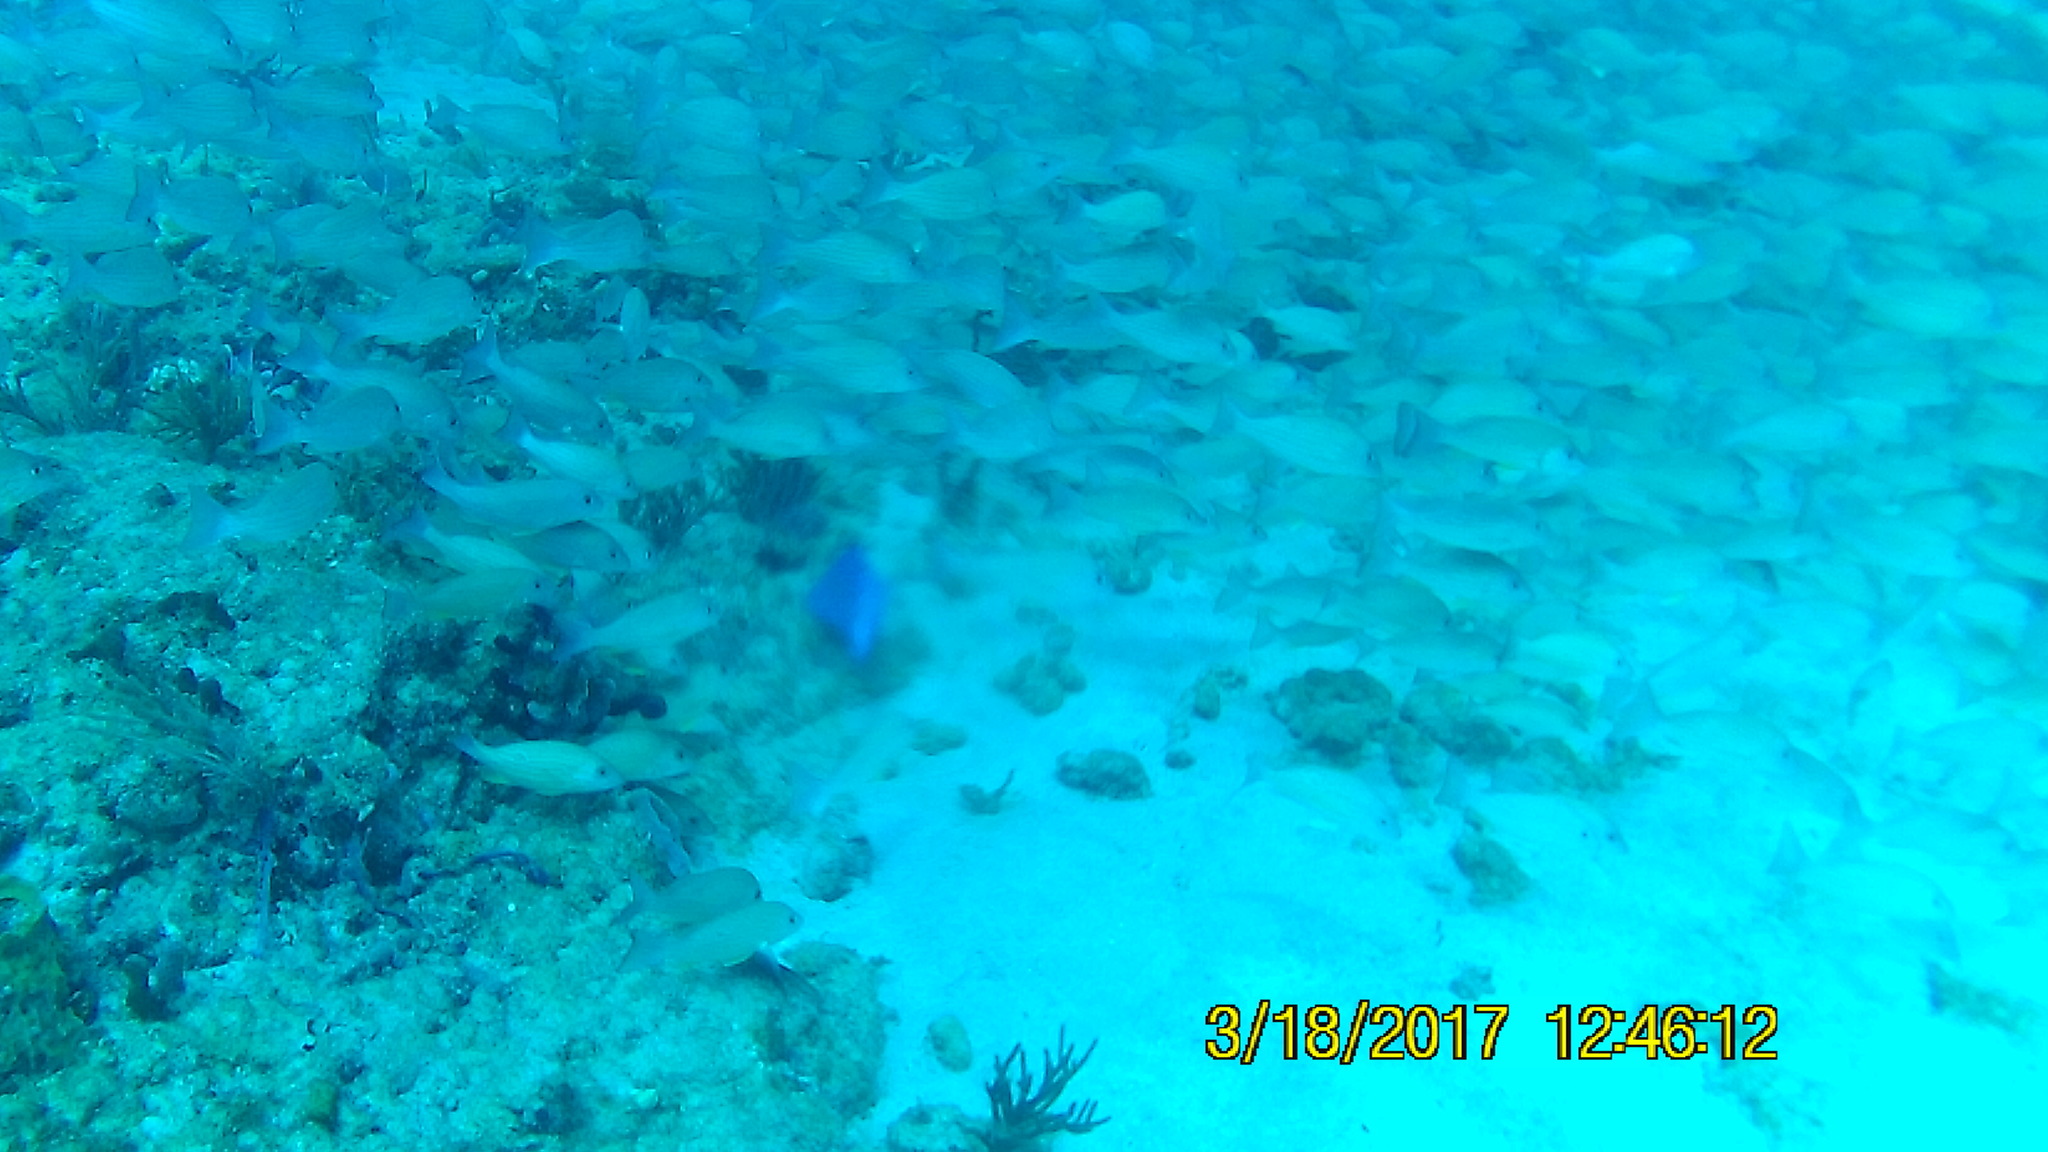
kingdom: Animalia
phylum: Chordata
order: Perciformes
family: Scaridae
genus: Scarus
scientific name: Scarus coeruleus
